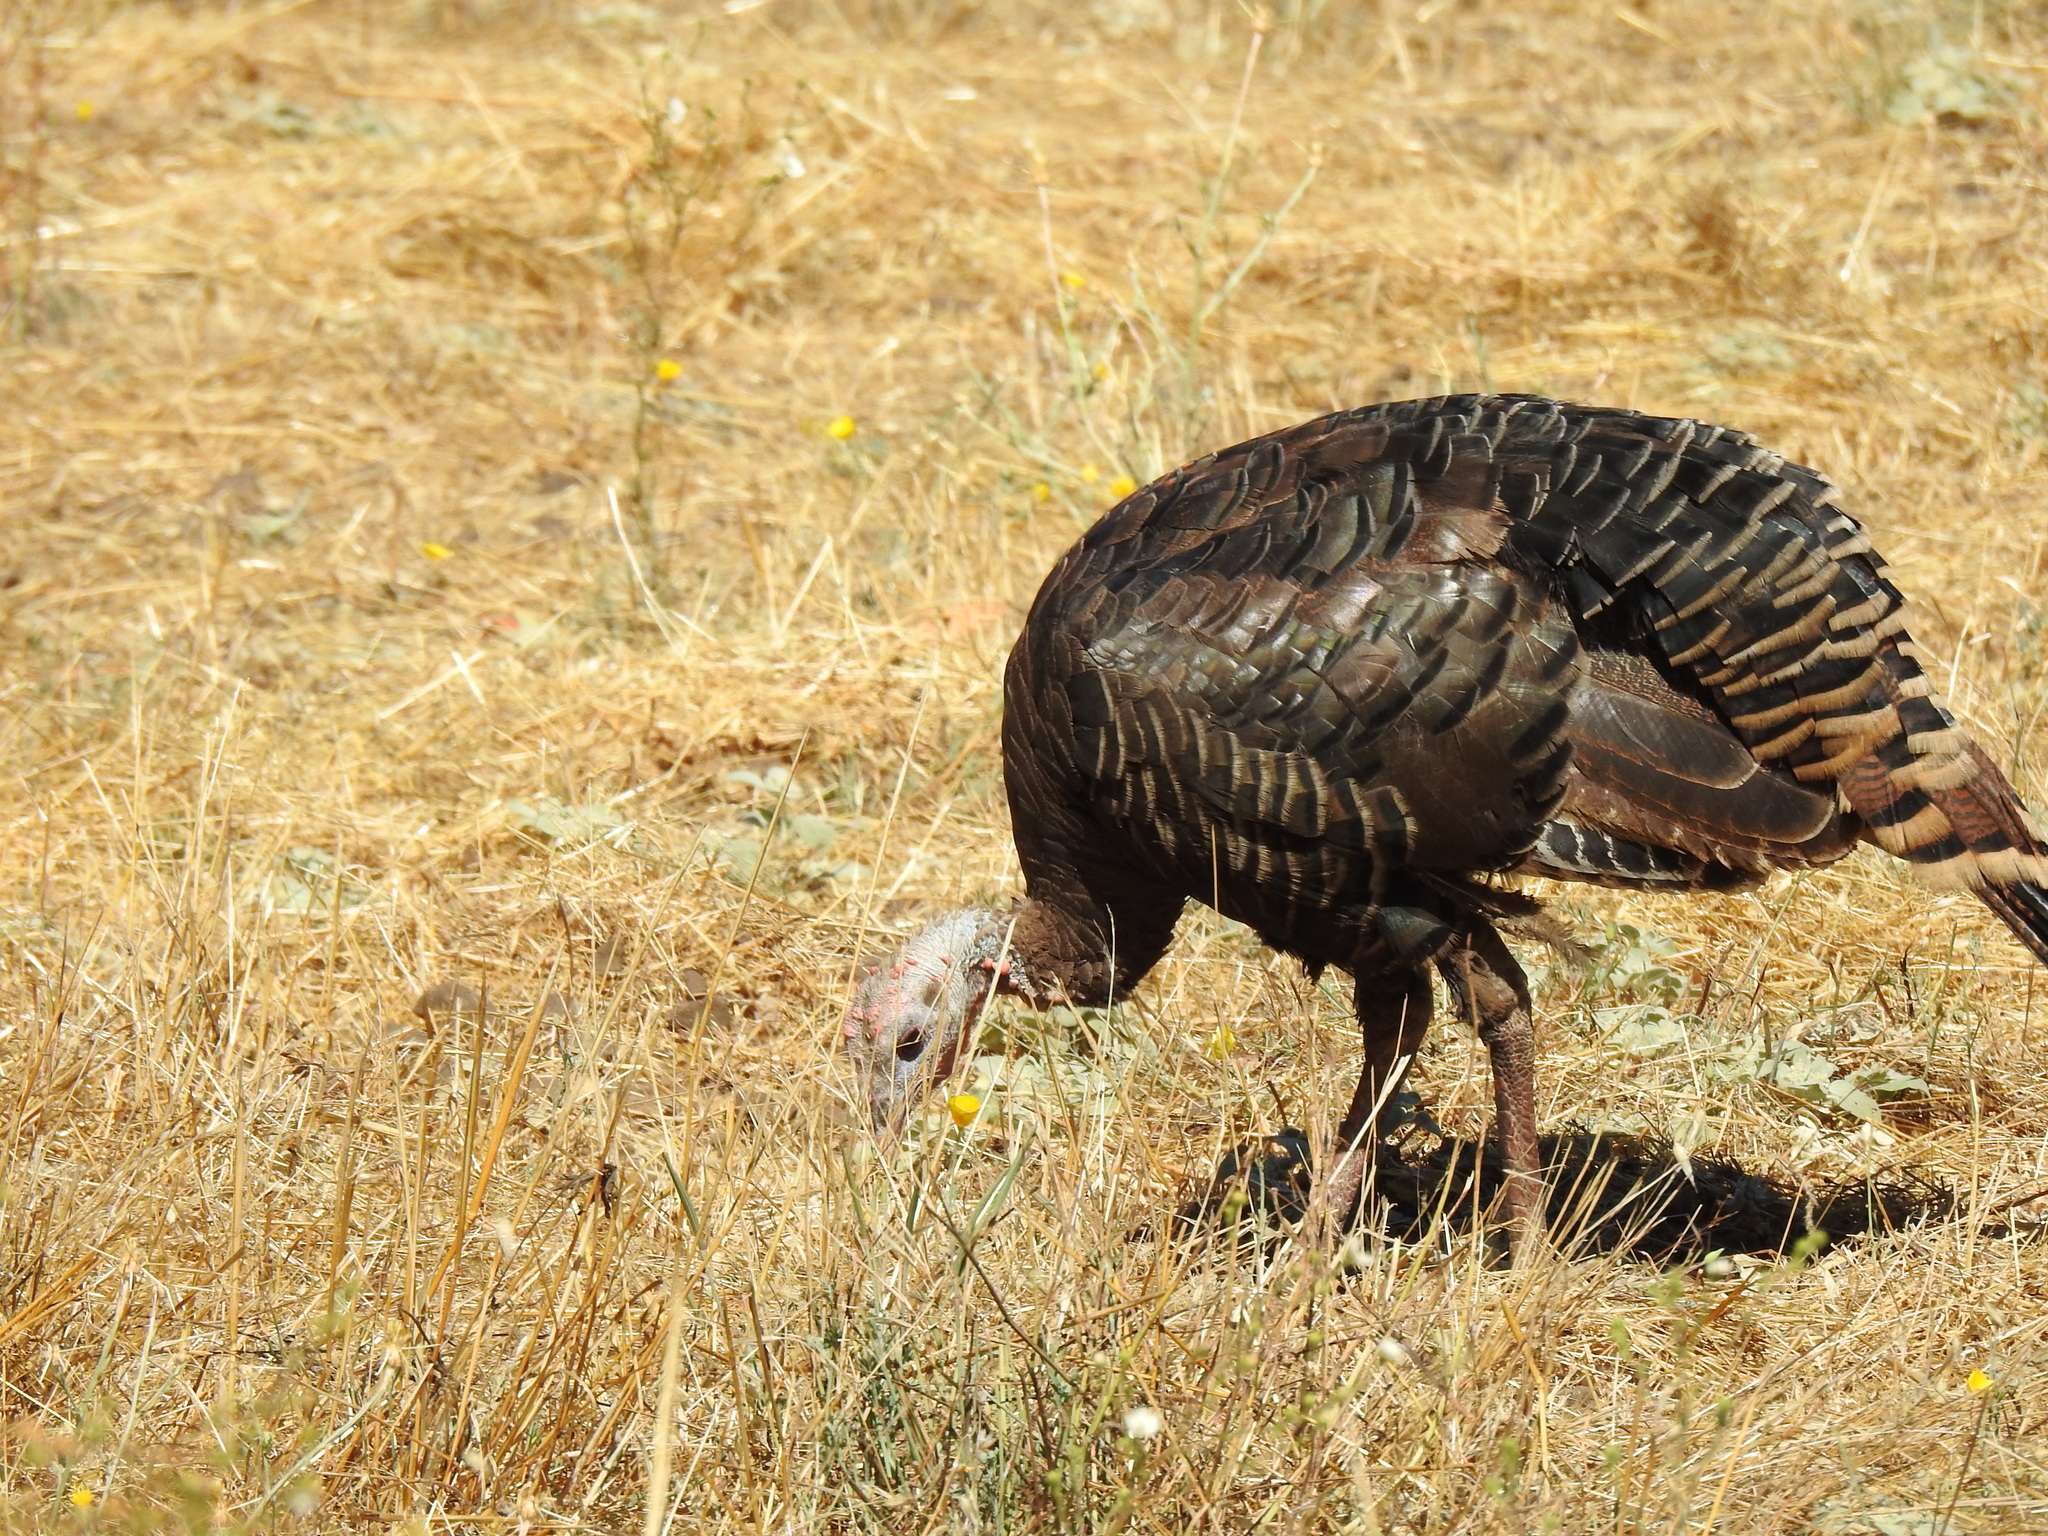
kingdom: Animalia
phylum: Chordata
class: Aves
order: Galliformes
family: Phasianidae
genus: Meleagris
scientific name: Meleagris gallopavo
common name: Wild turkey
